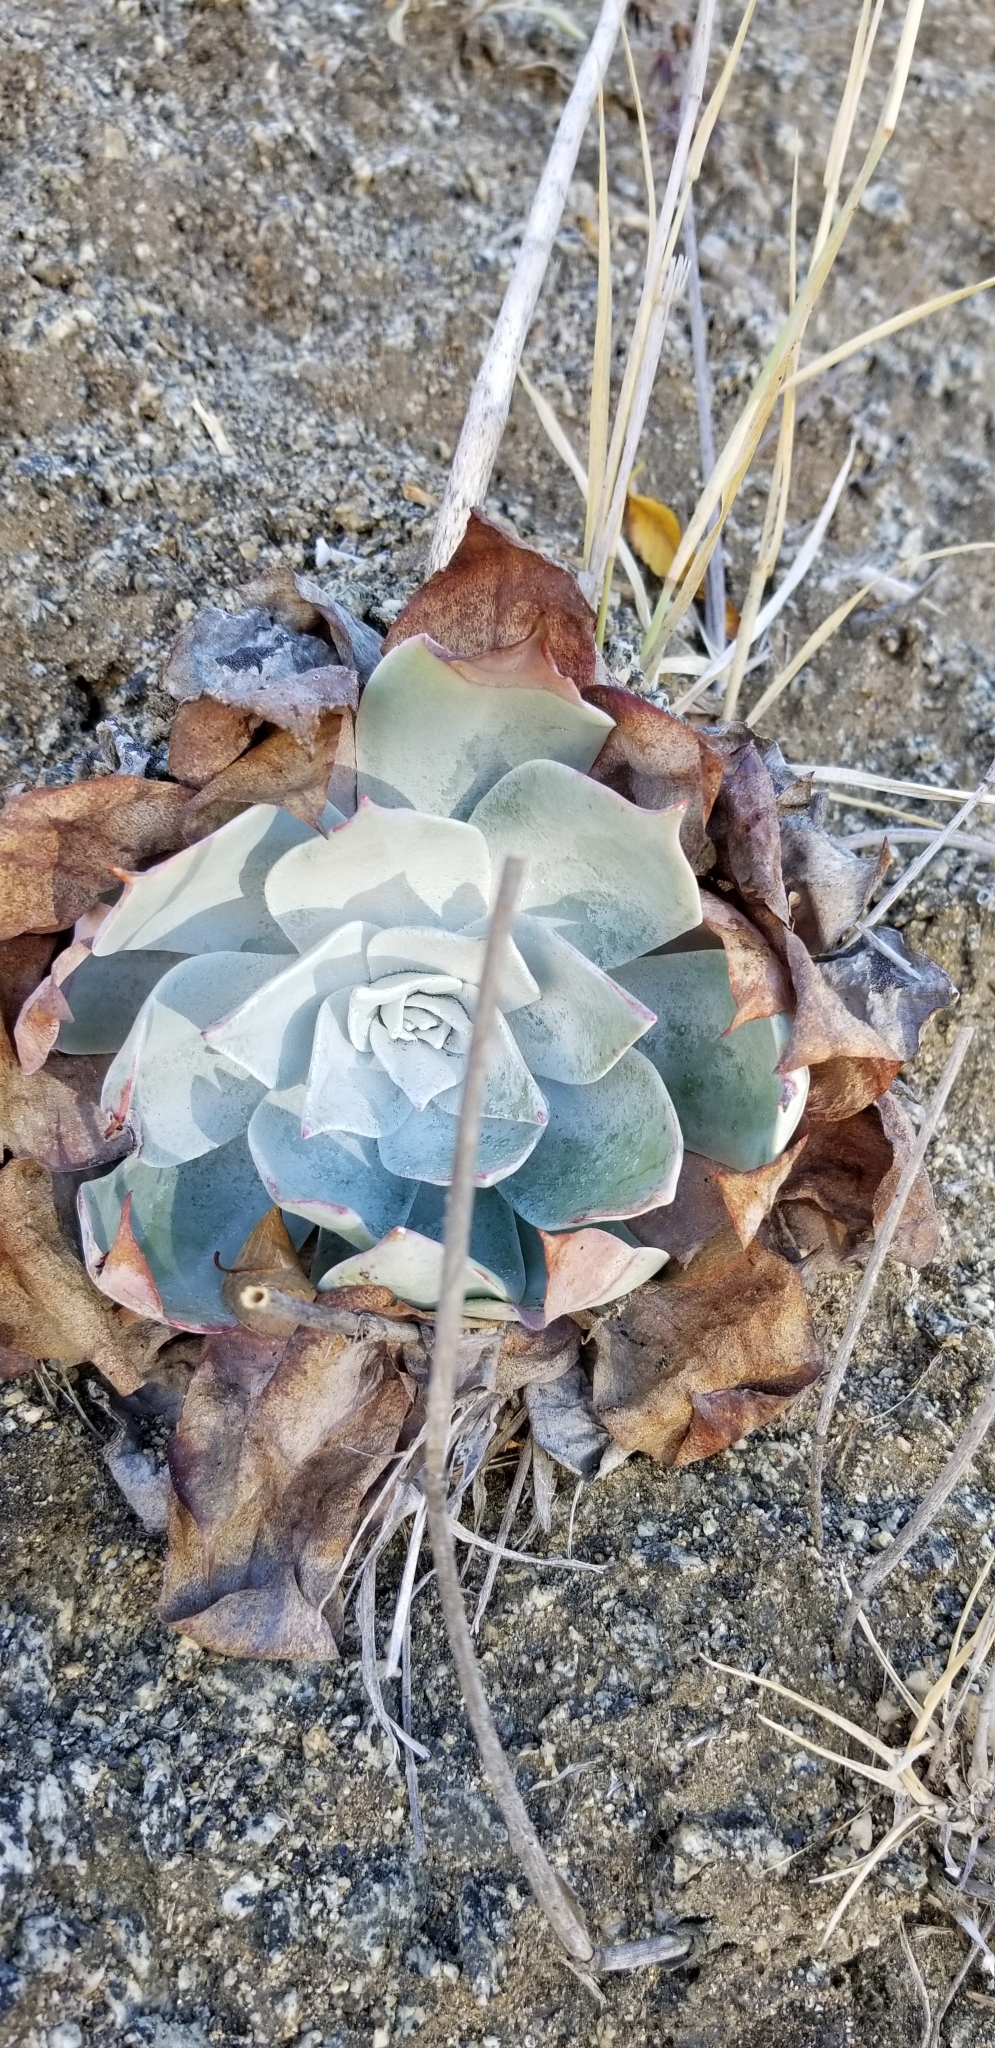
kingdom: Plantae
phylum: Tracheophyta
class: Magnoliopsida
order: Saxifragales
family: Crassulaceae
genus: Dudleya
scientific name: Dudleya pulverulenta
